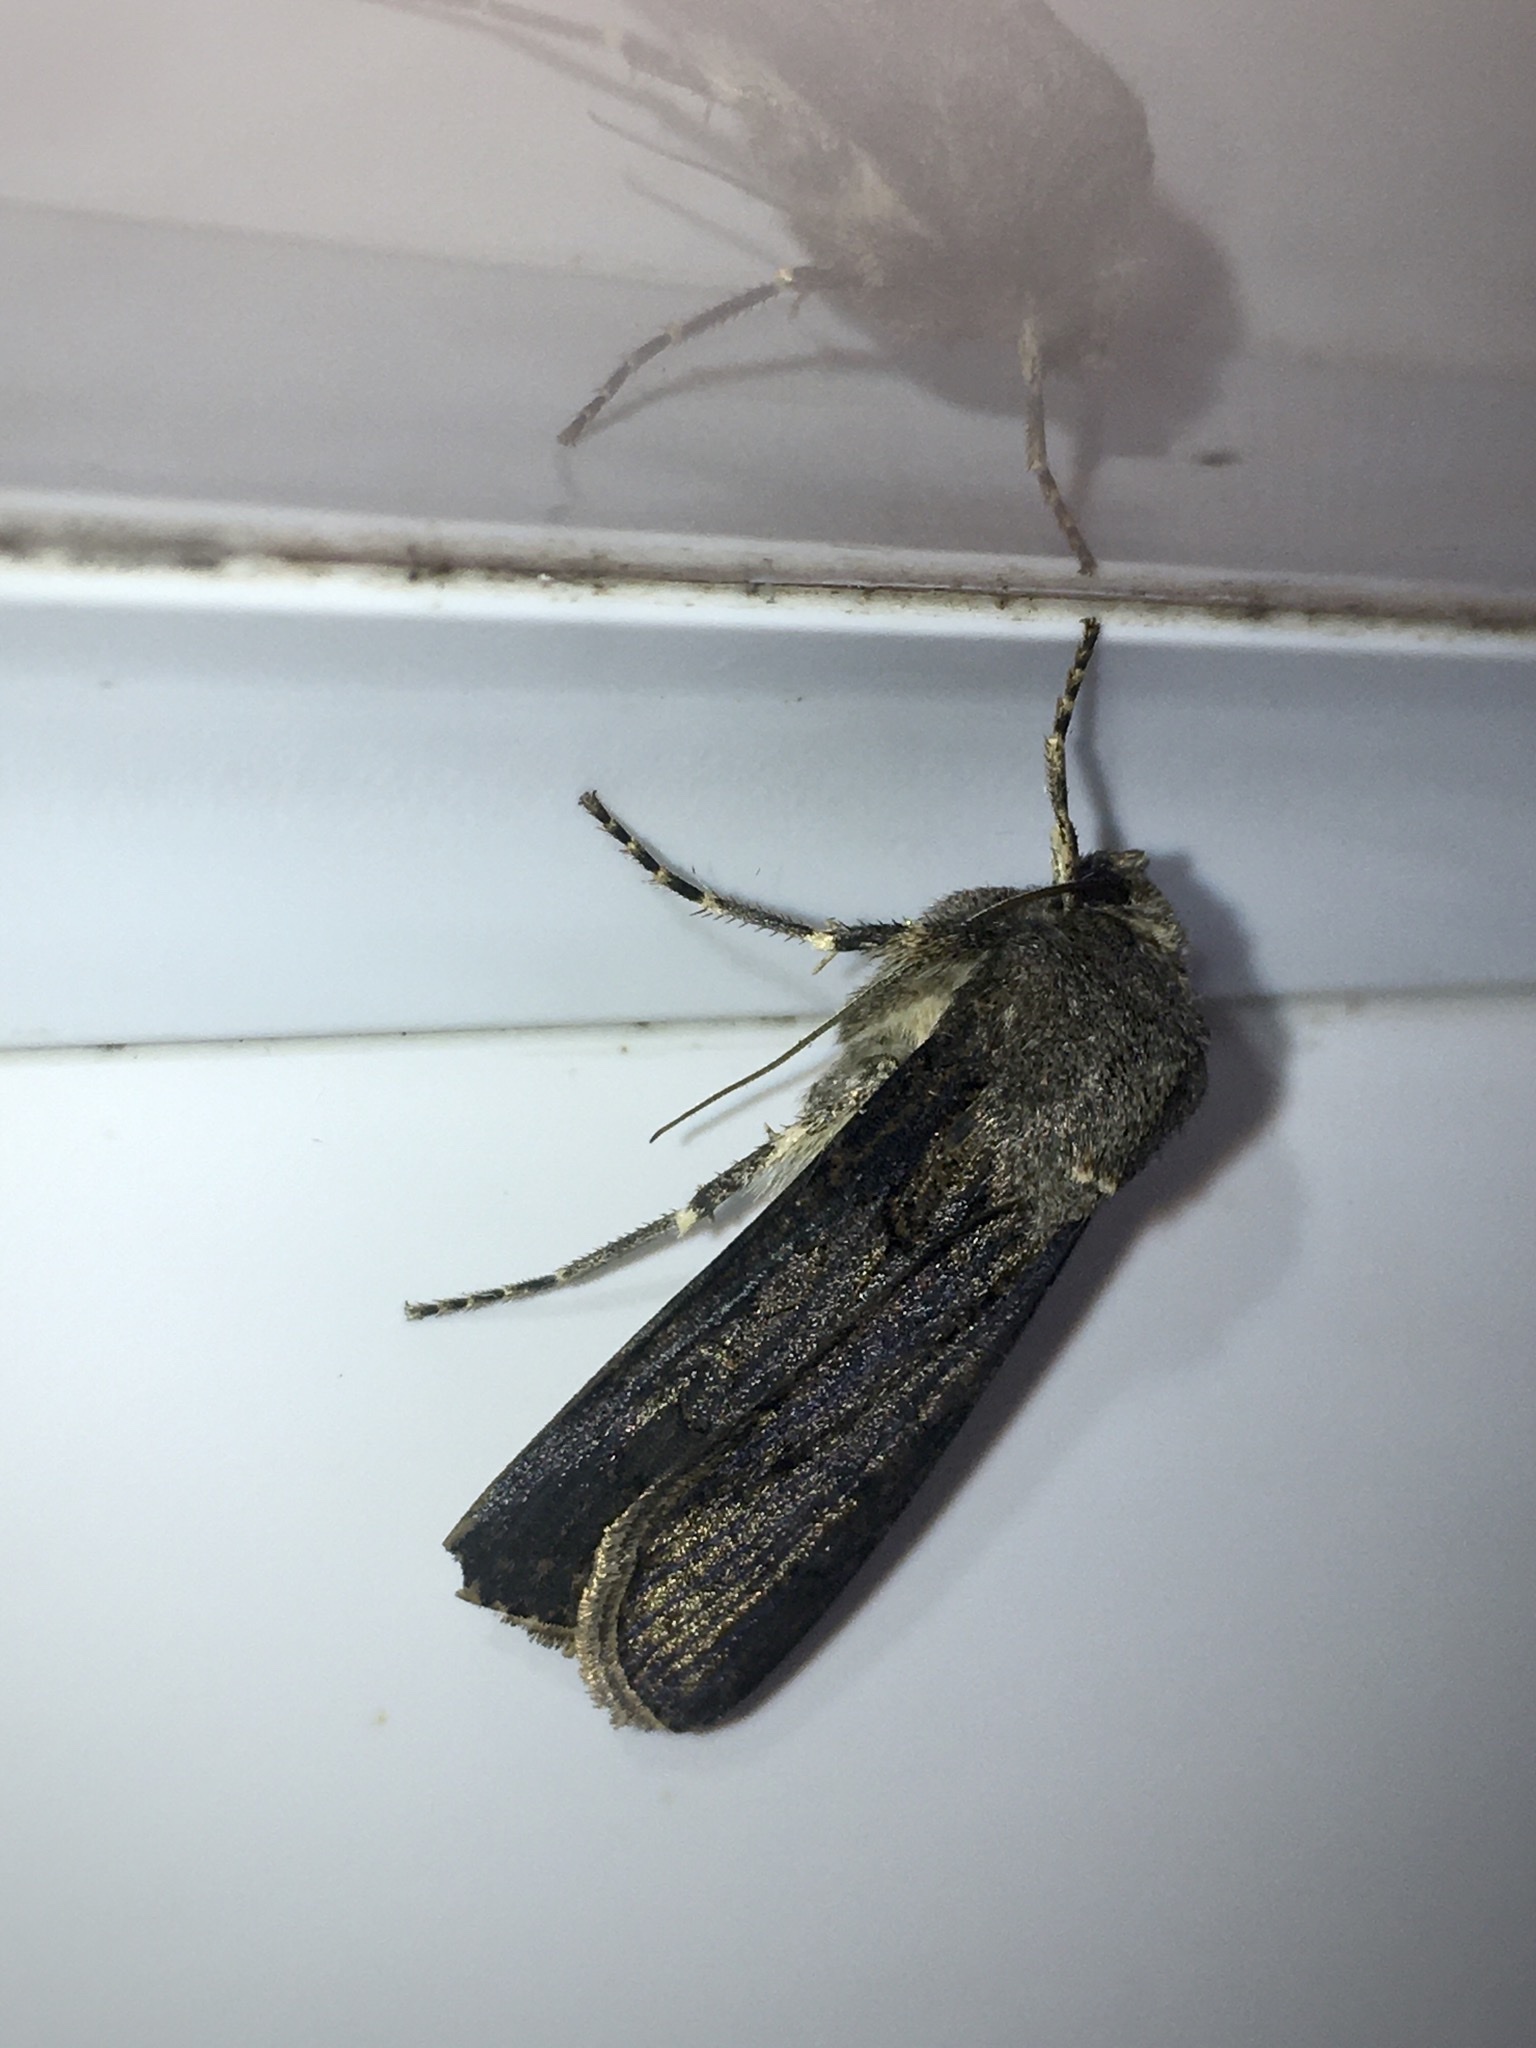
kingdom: Animalia
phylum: Arthropoda
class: Insecta
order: Lepidoptera
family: Noctuidae
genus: Agrotis
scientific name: Agrotis segetum
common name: Turnip moth
